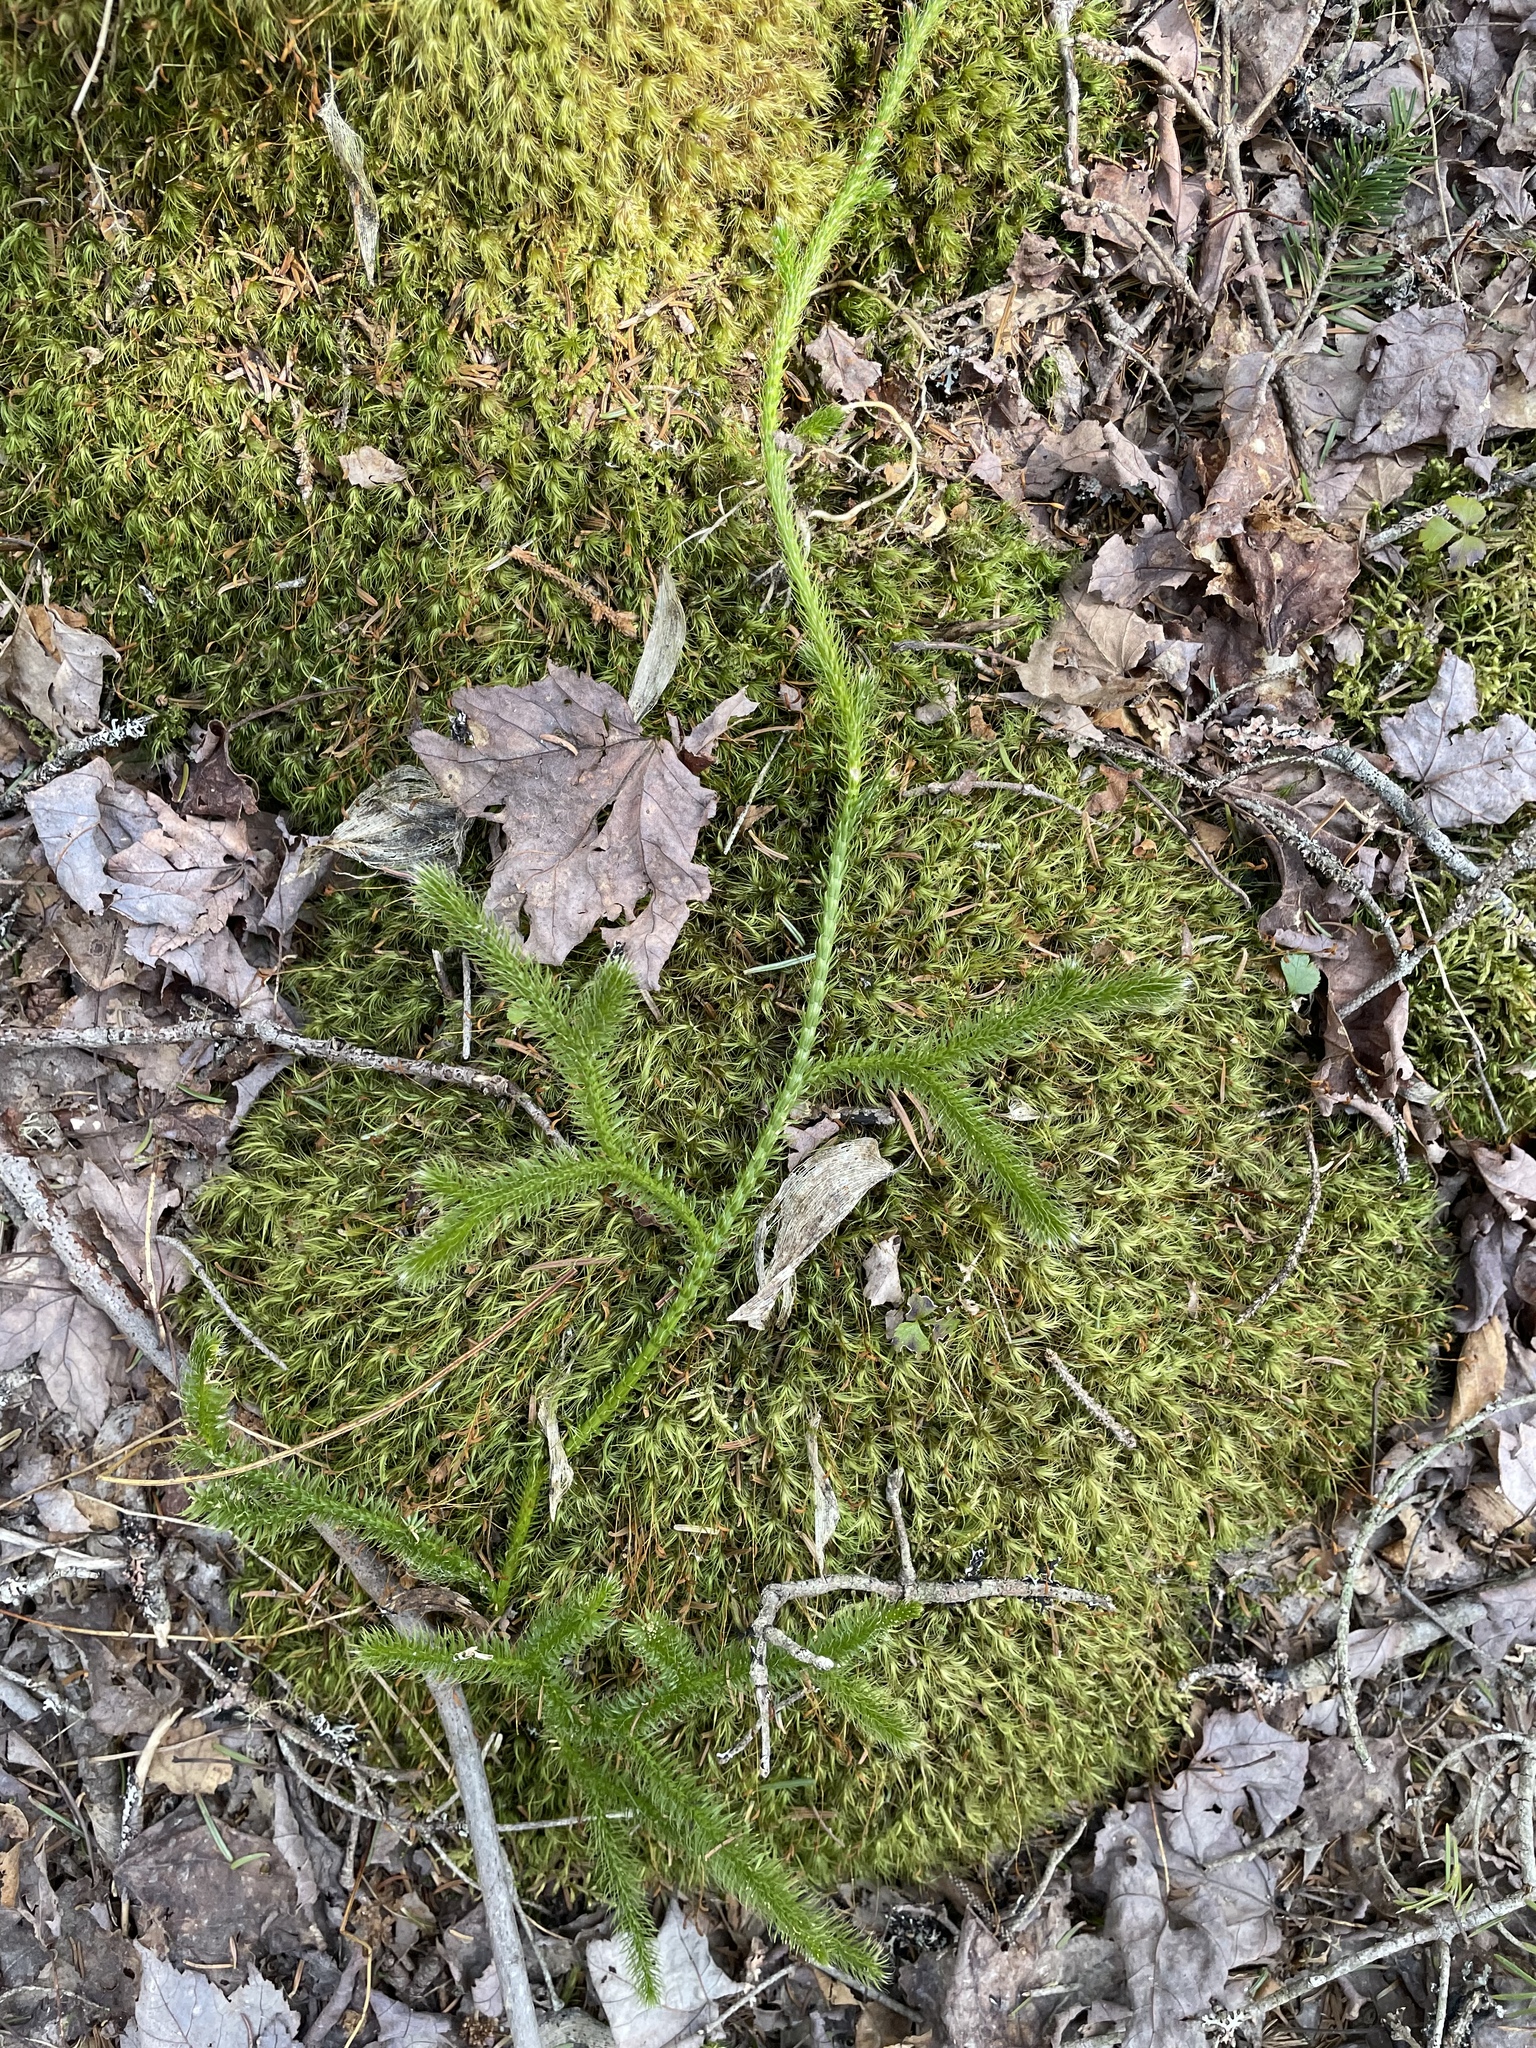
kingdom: Plantae
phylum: Tracheophyta
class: Lycopodiopsida
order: Lycopodiales
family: Lycopodiaceae
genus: Lycopodium
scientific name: Lycopodium clavatum
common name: Stag's-horn clubmoss
